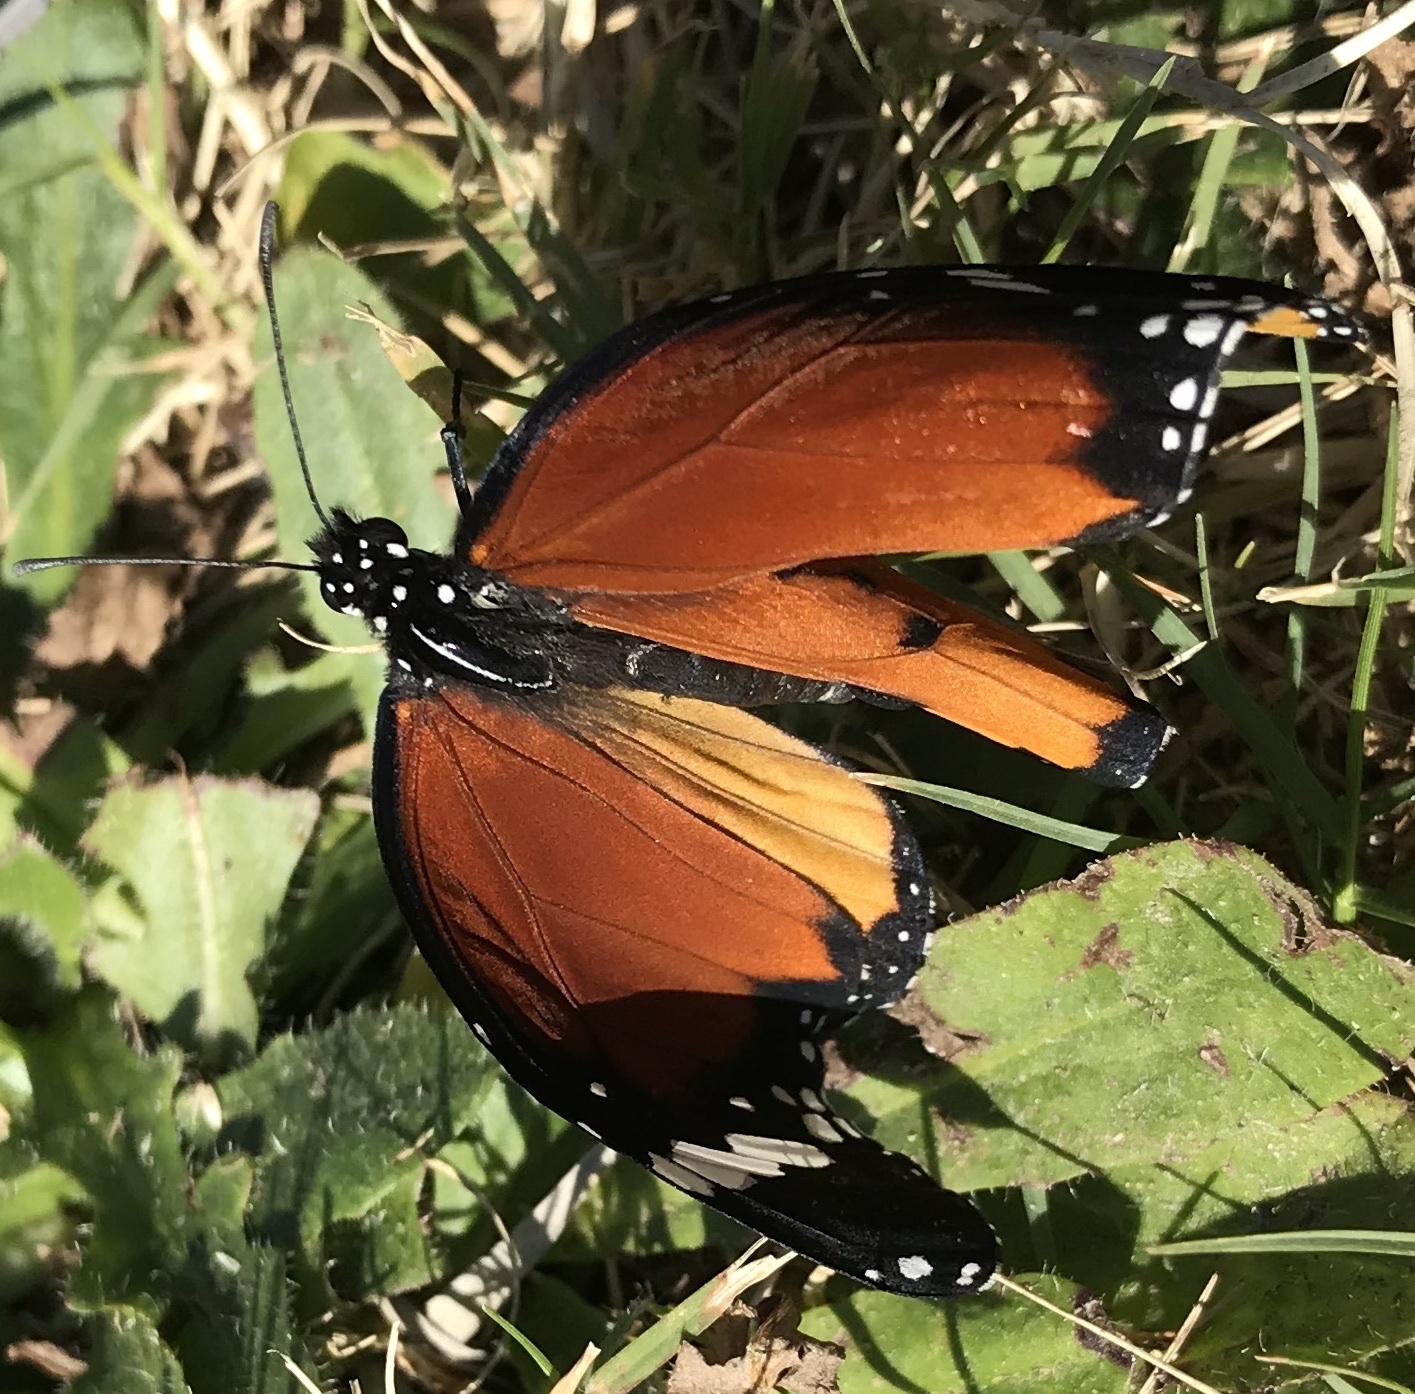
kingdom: Animalia
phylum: Arthropoda
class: Insecta
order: Lepidoptera
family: Nymphalidae
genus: Danaus
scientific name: Danaus chrysippus
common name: Plain tiger
